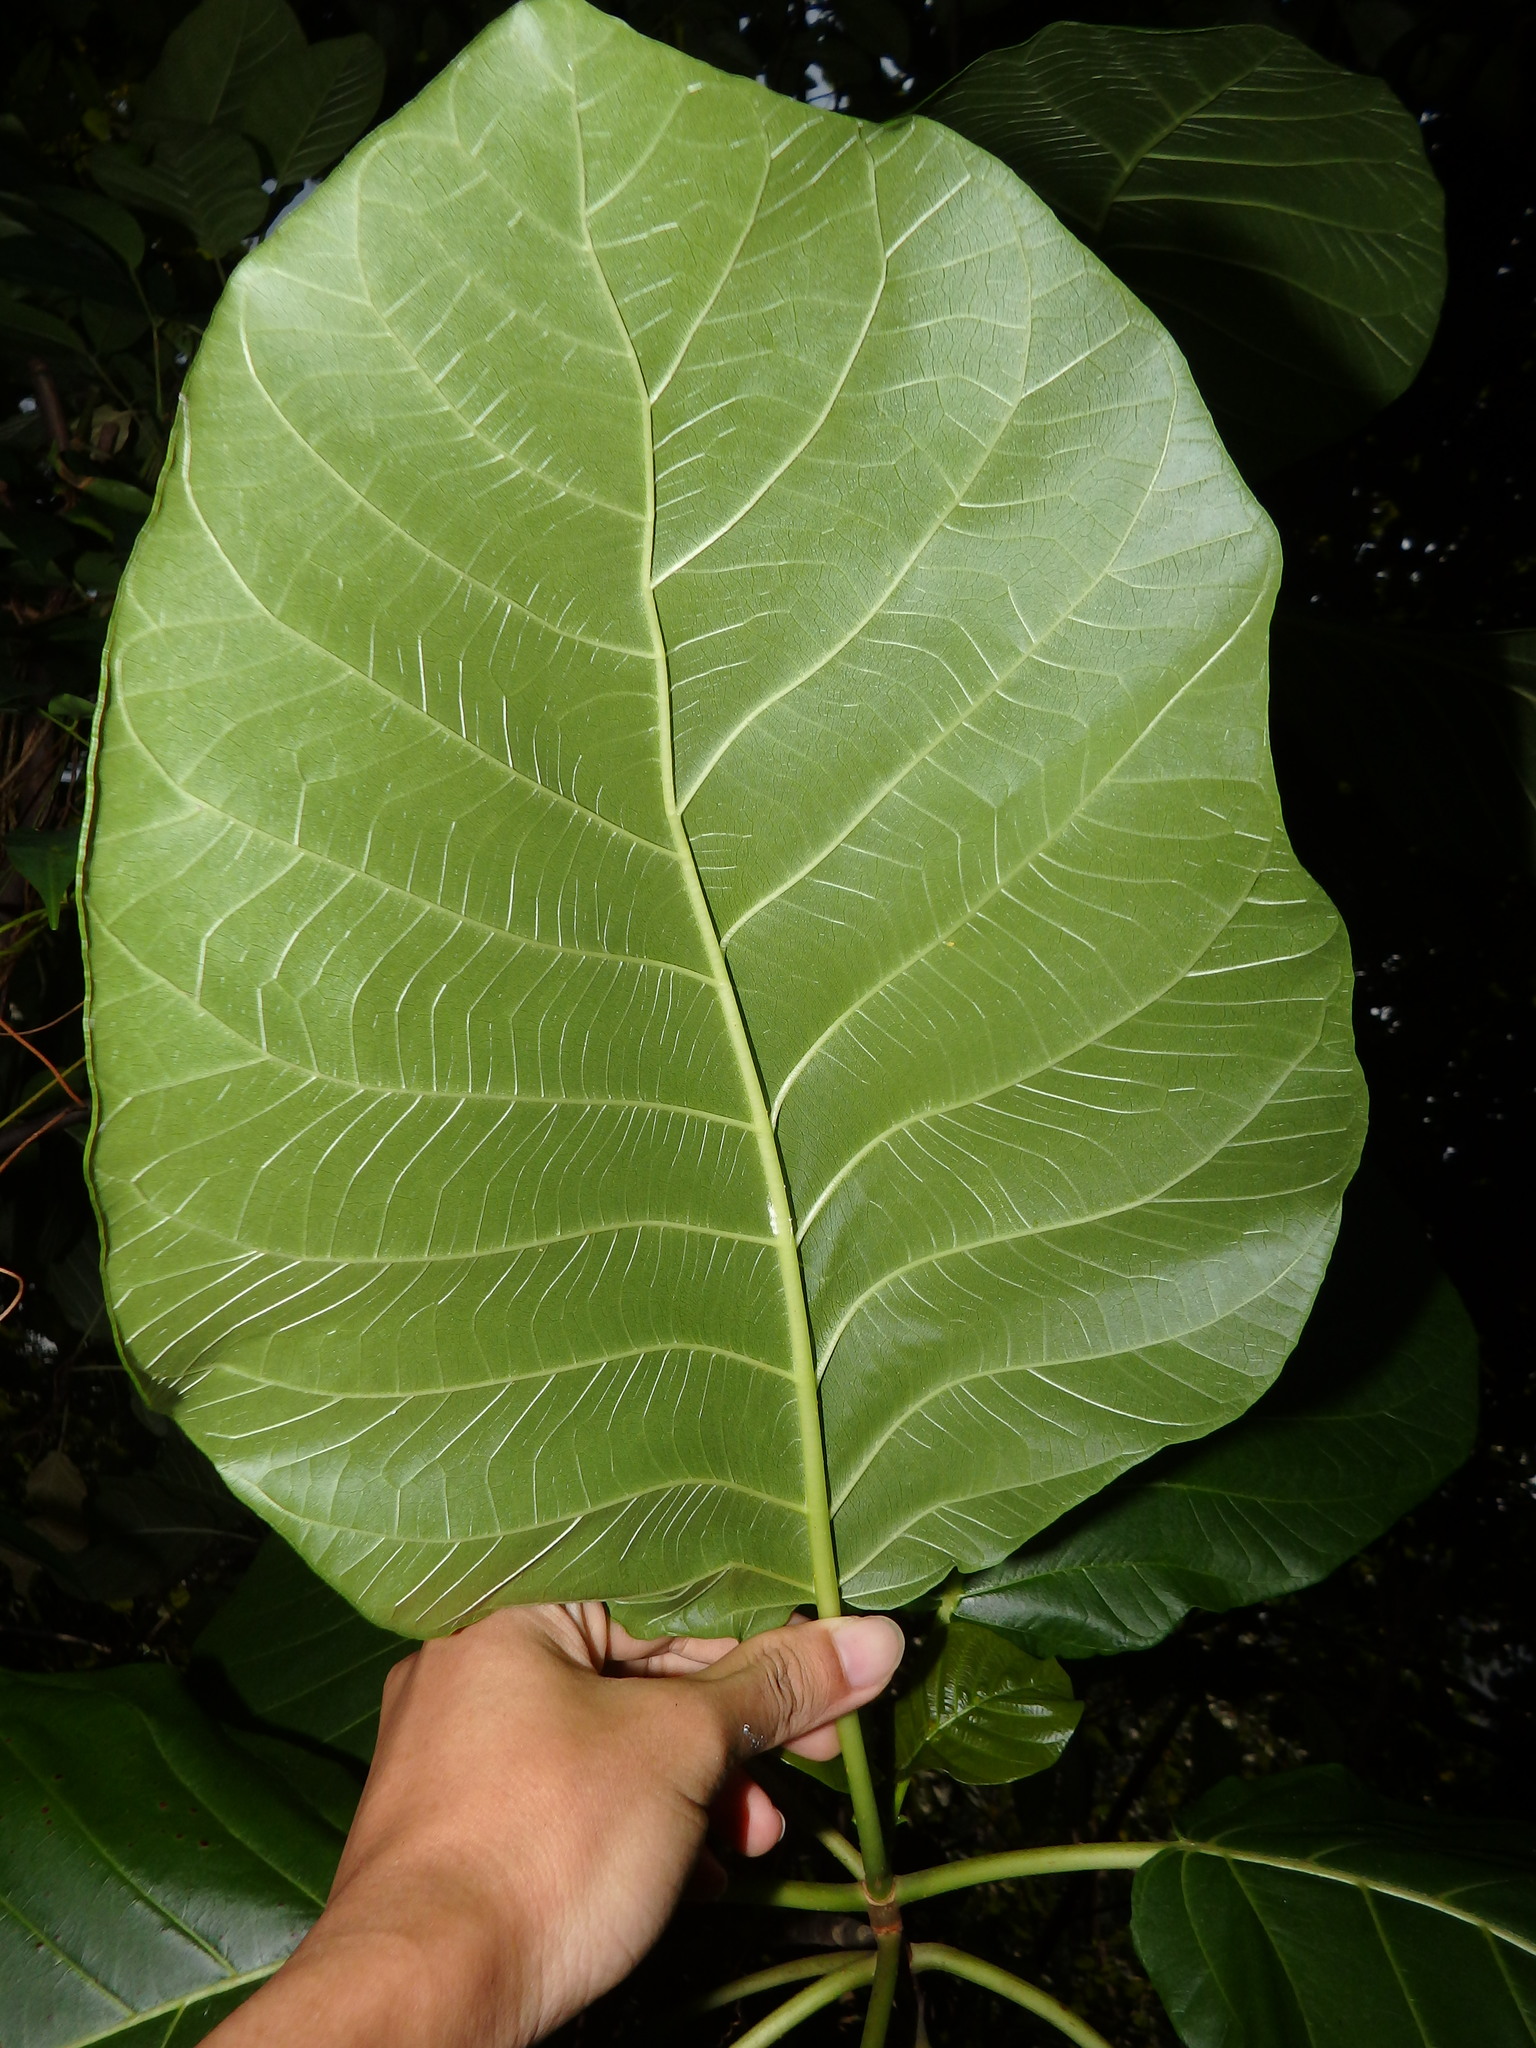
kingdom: Plantae
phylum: Tracheophyta
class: Magnoliopsida
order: Malpighiales
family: Euphorbiaceae
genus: Claoxylon
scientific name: Claoxylon indicum
